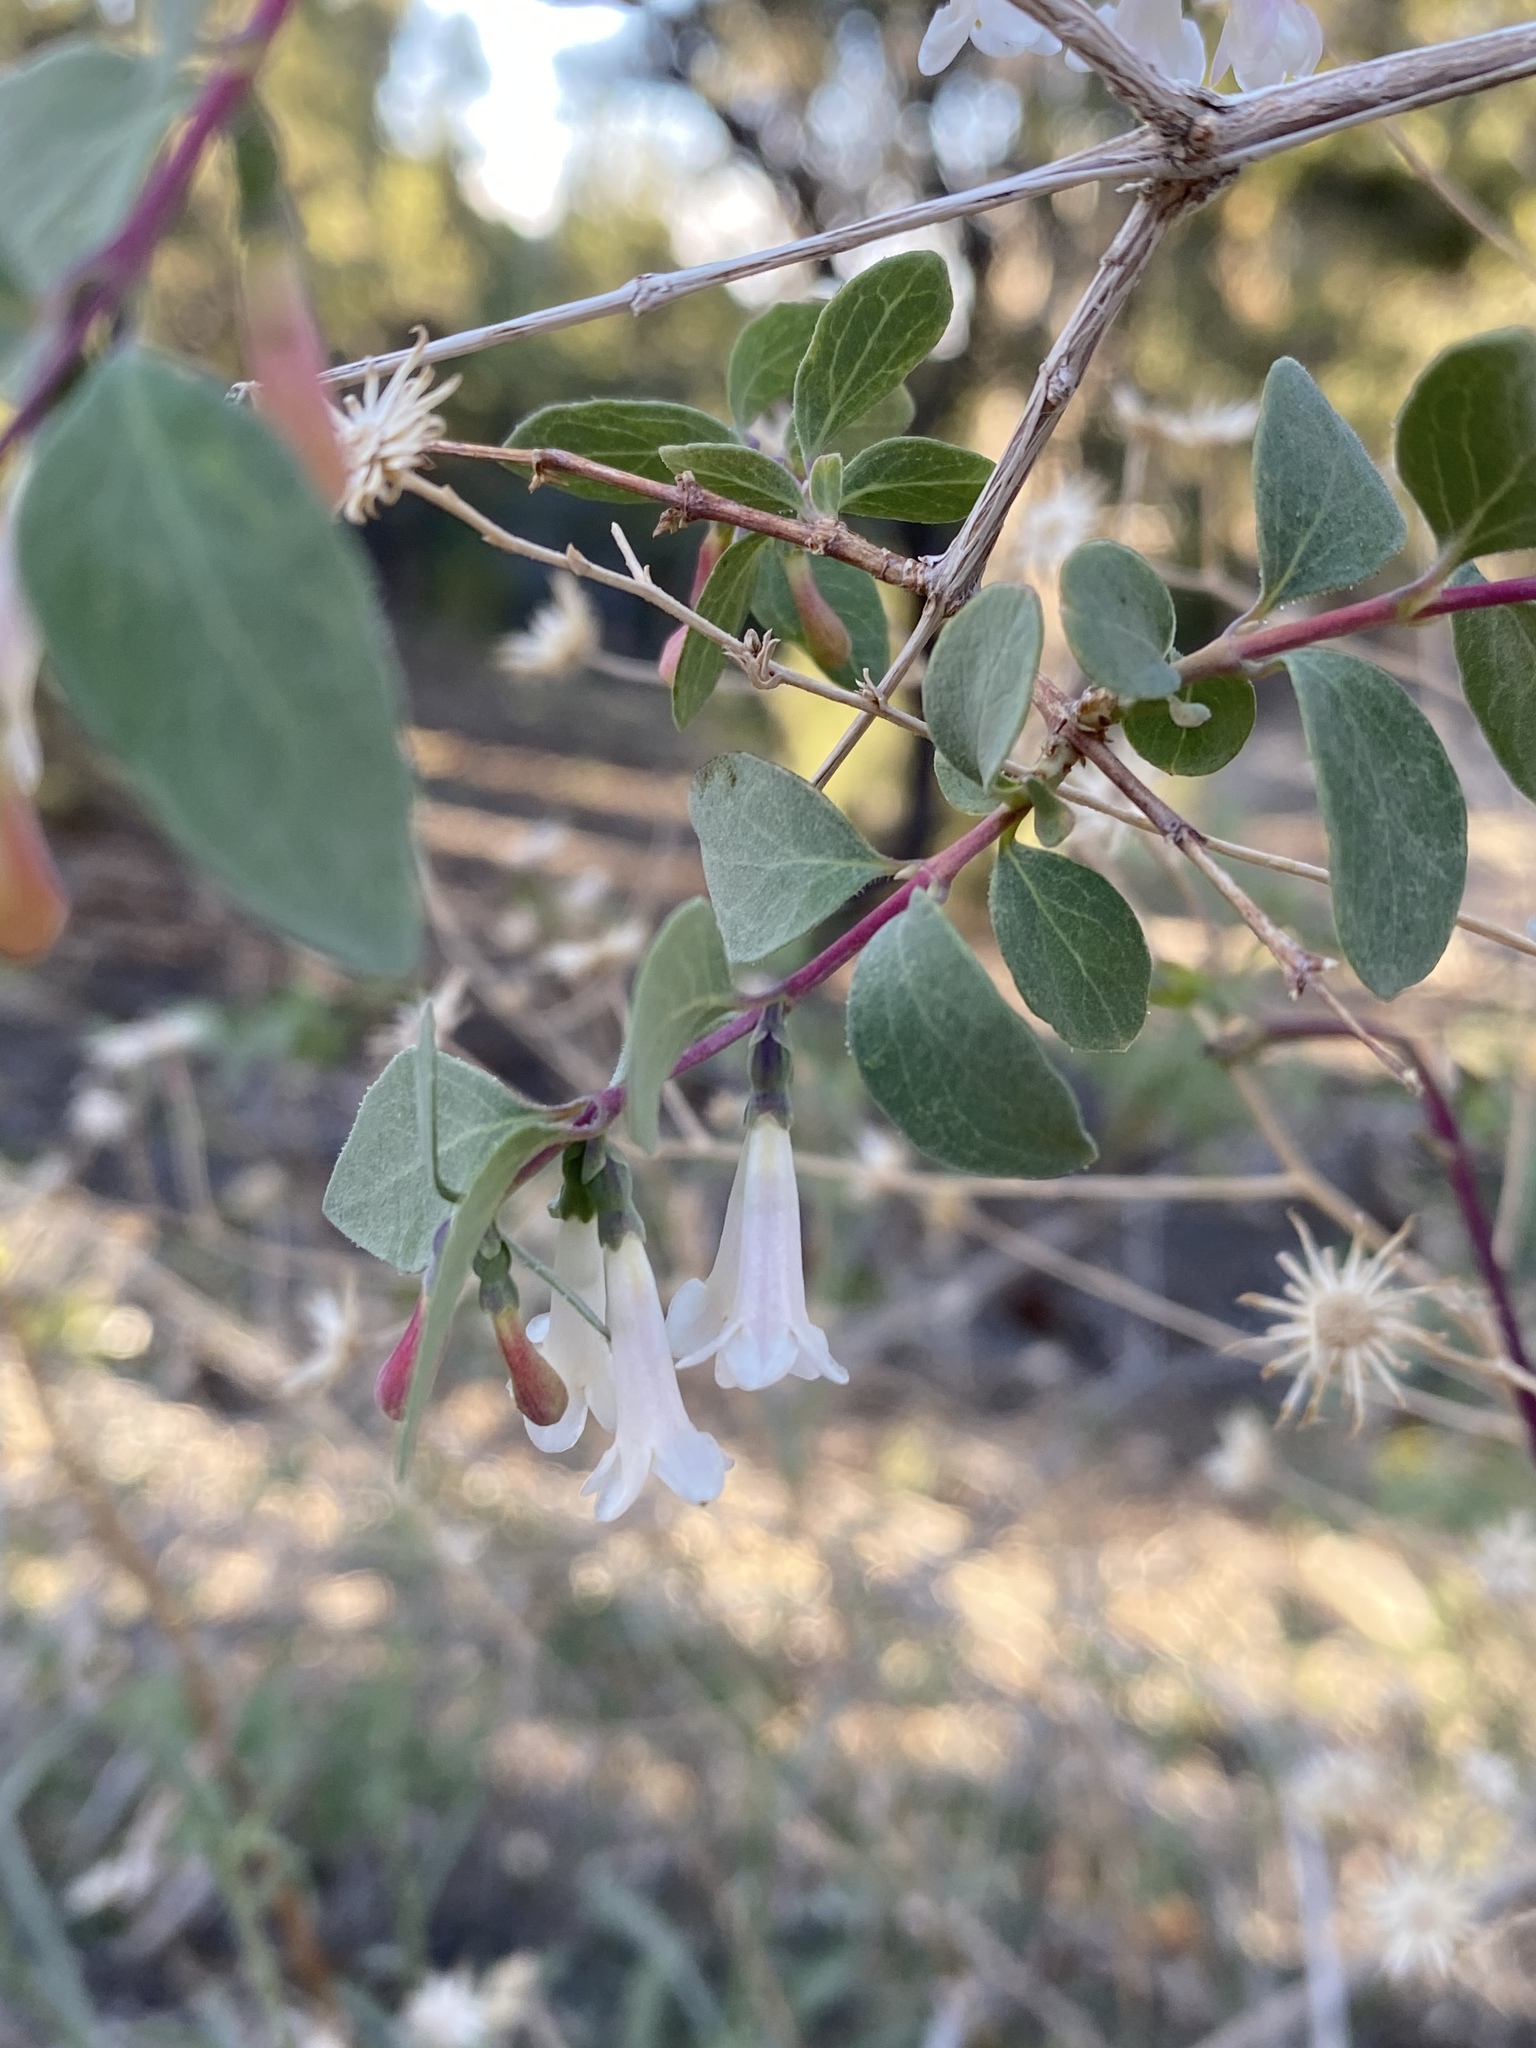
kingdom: Plantae
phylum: Tracheophyta
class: Magnoliopsida
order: Dipsacales
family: Caprifoliaceae
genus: Symphoricarpos
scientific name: Symphoricarpos rotundifolius
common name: Round-leaved snowberry
